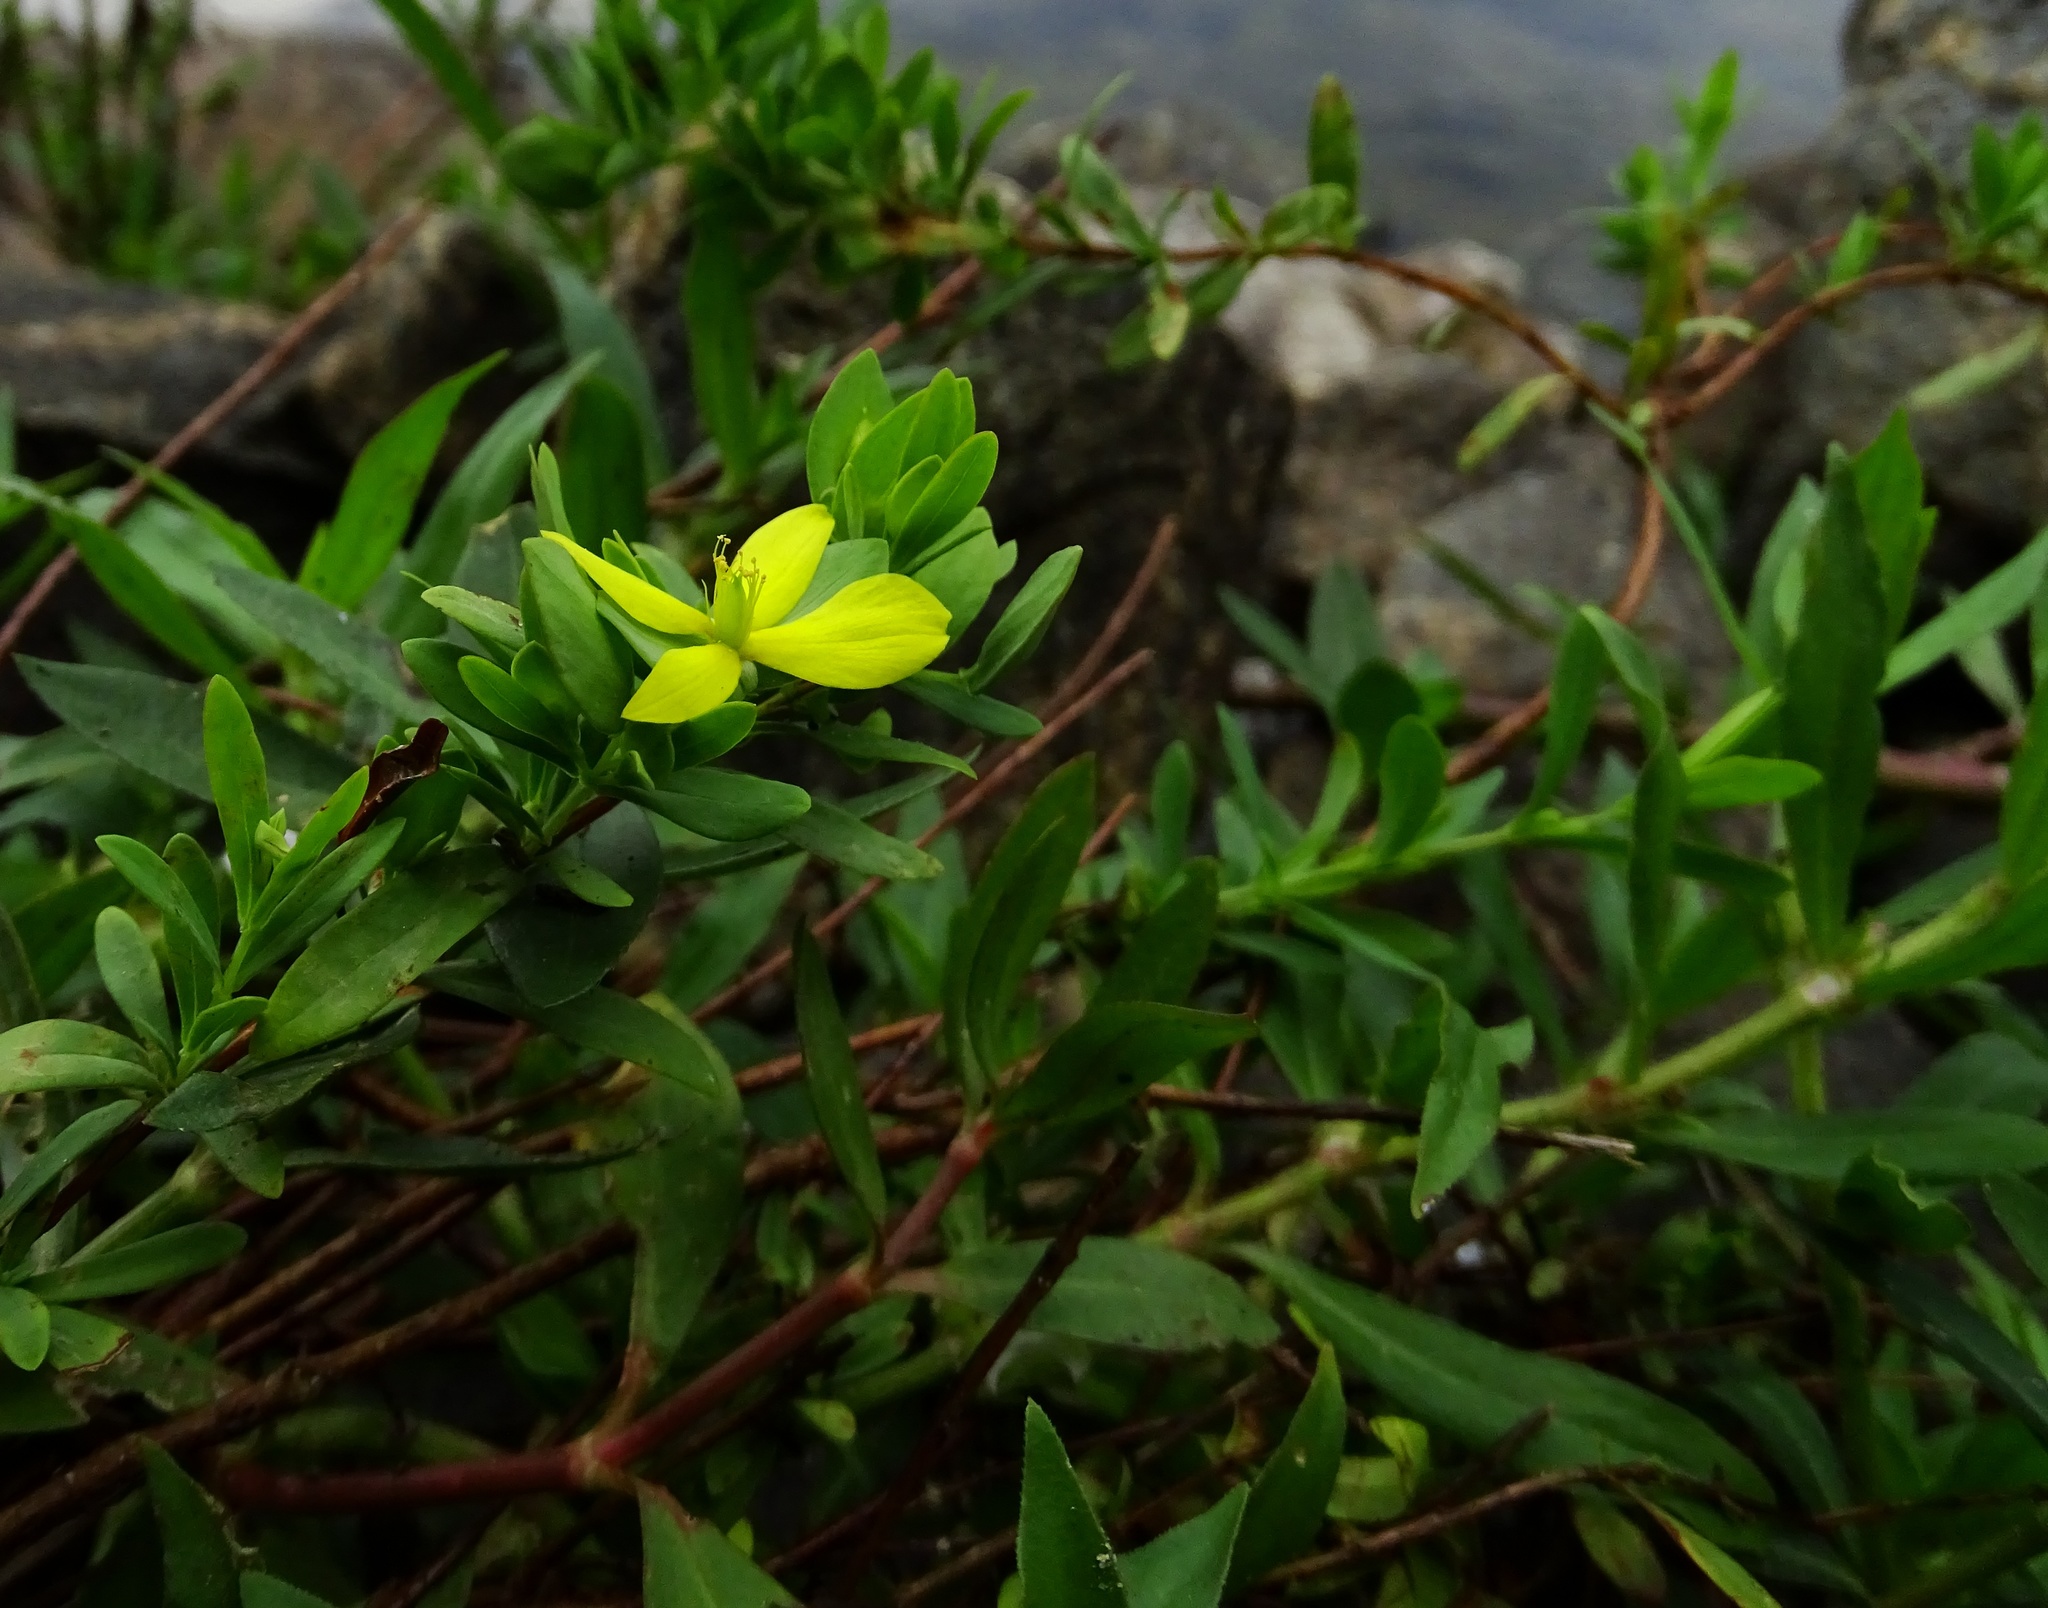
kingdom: Plantae
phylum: Tracheophyta
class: Magnoliopsida
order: Malpighiales
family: Hypericaceae
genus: Hypericum
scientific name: Hypericum hypericoides
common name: St. andrew's cross
